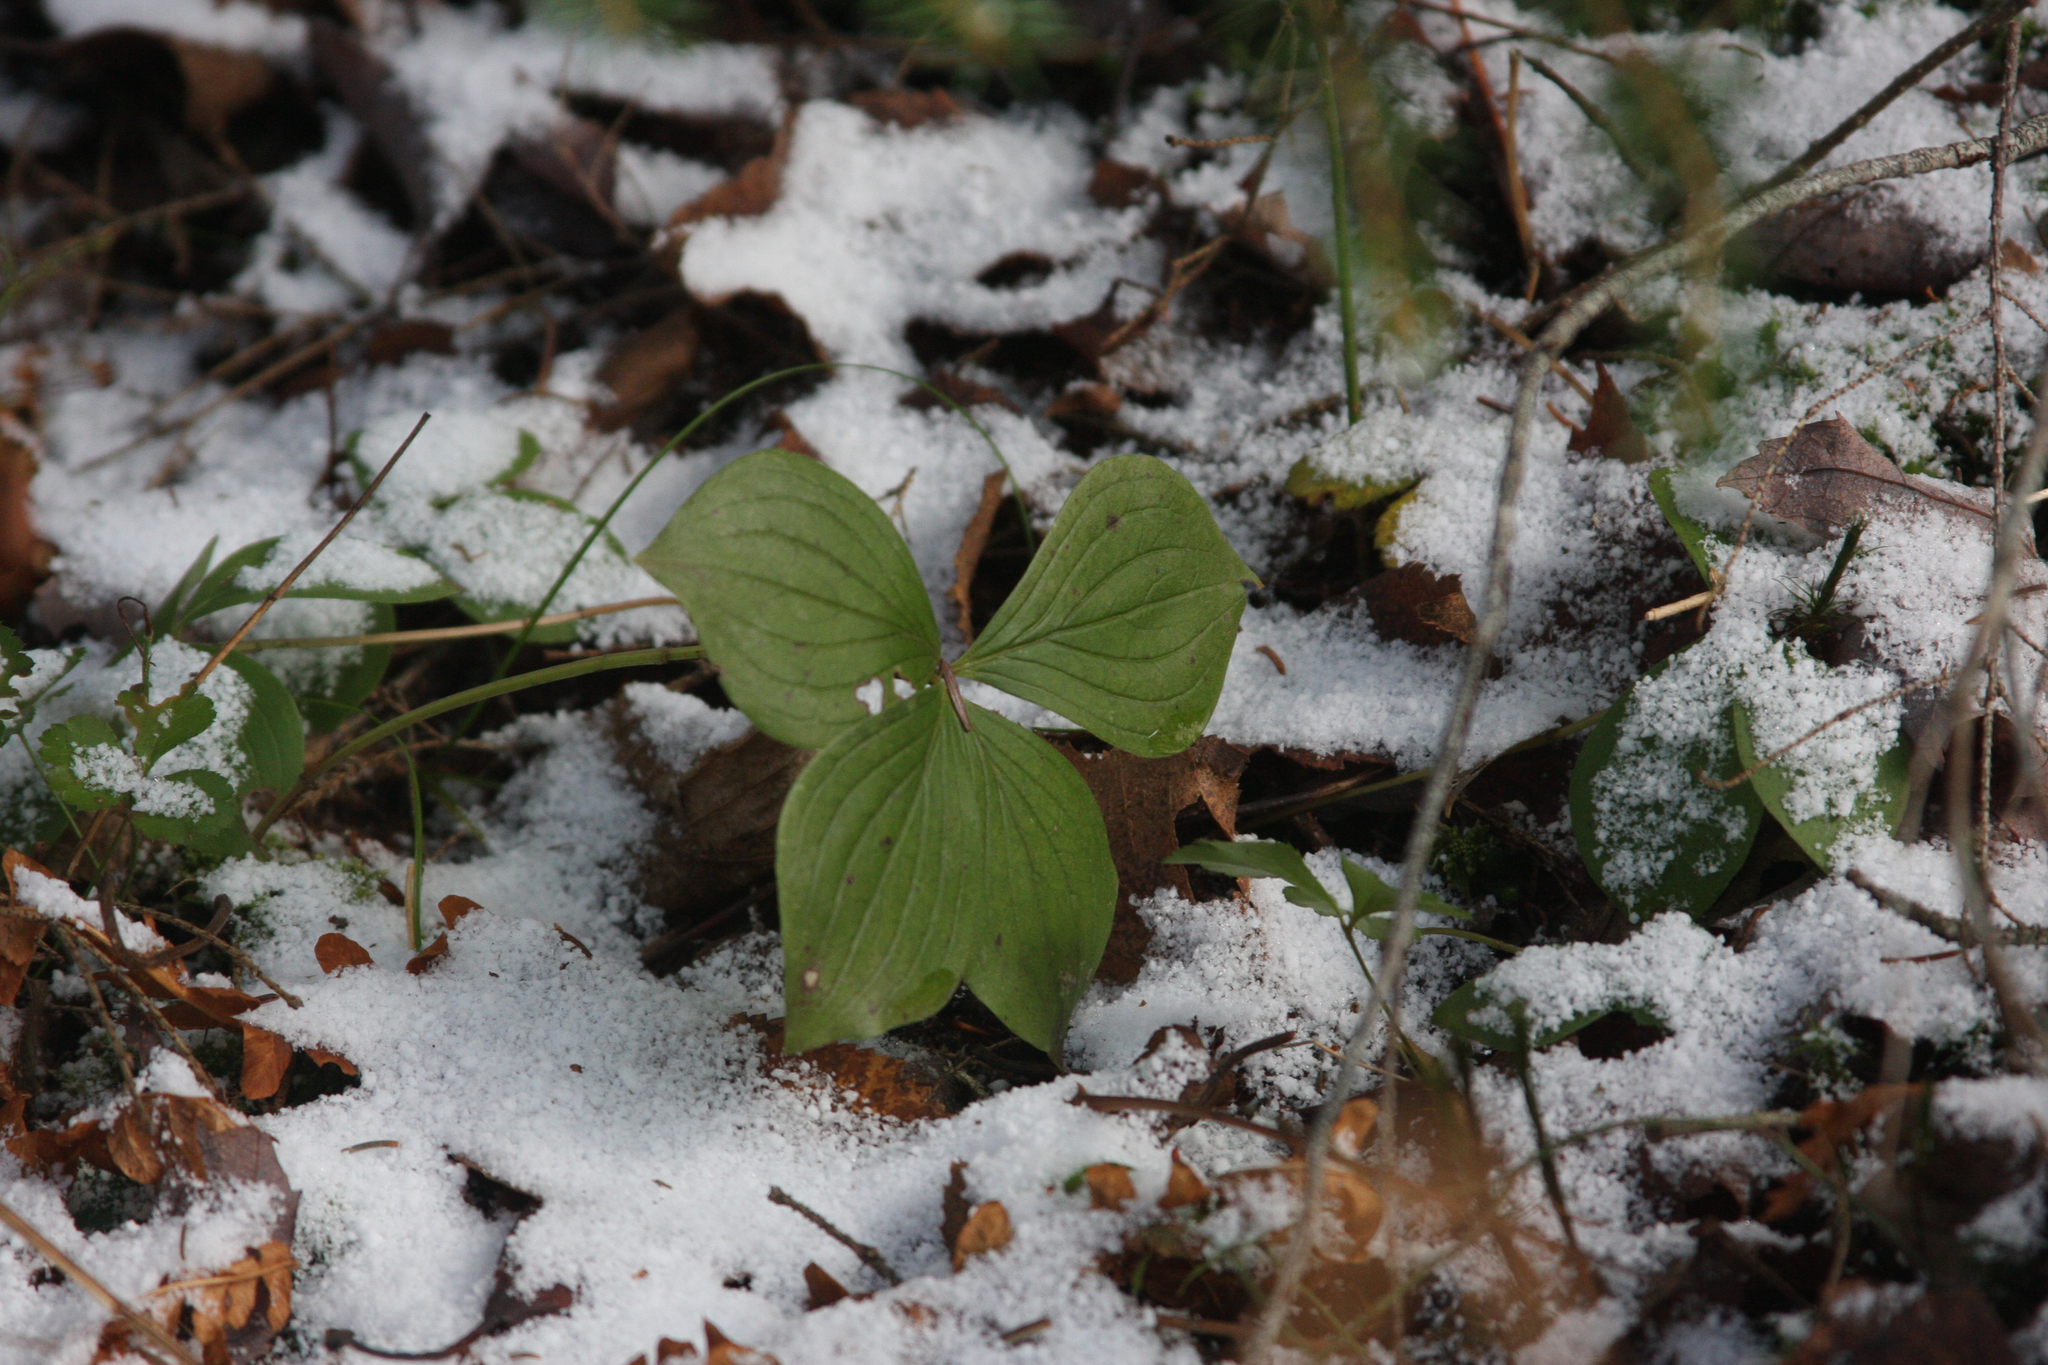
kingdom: Plantae
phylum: Tracheophyta
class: Magnoliopsida
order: Cornales
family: Cornaceae
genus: Cornus
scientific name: Cornus canadensis
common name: Creeping dogwood
